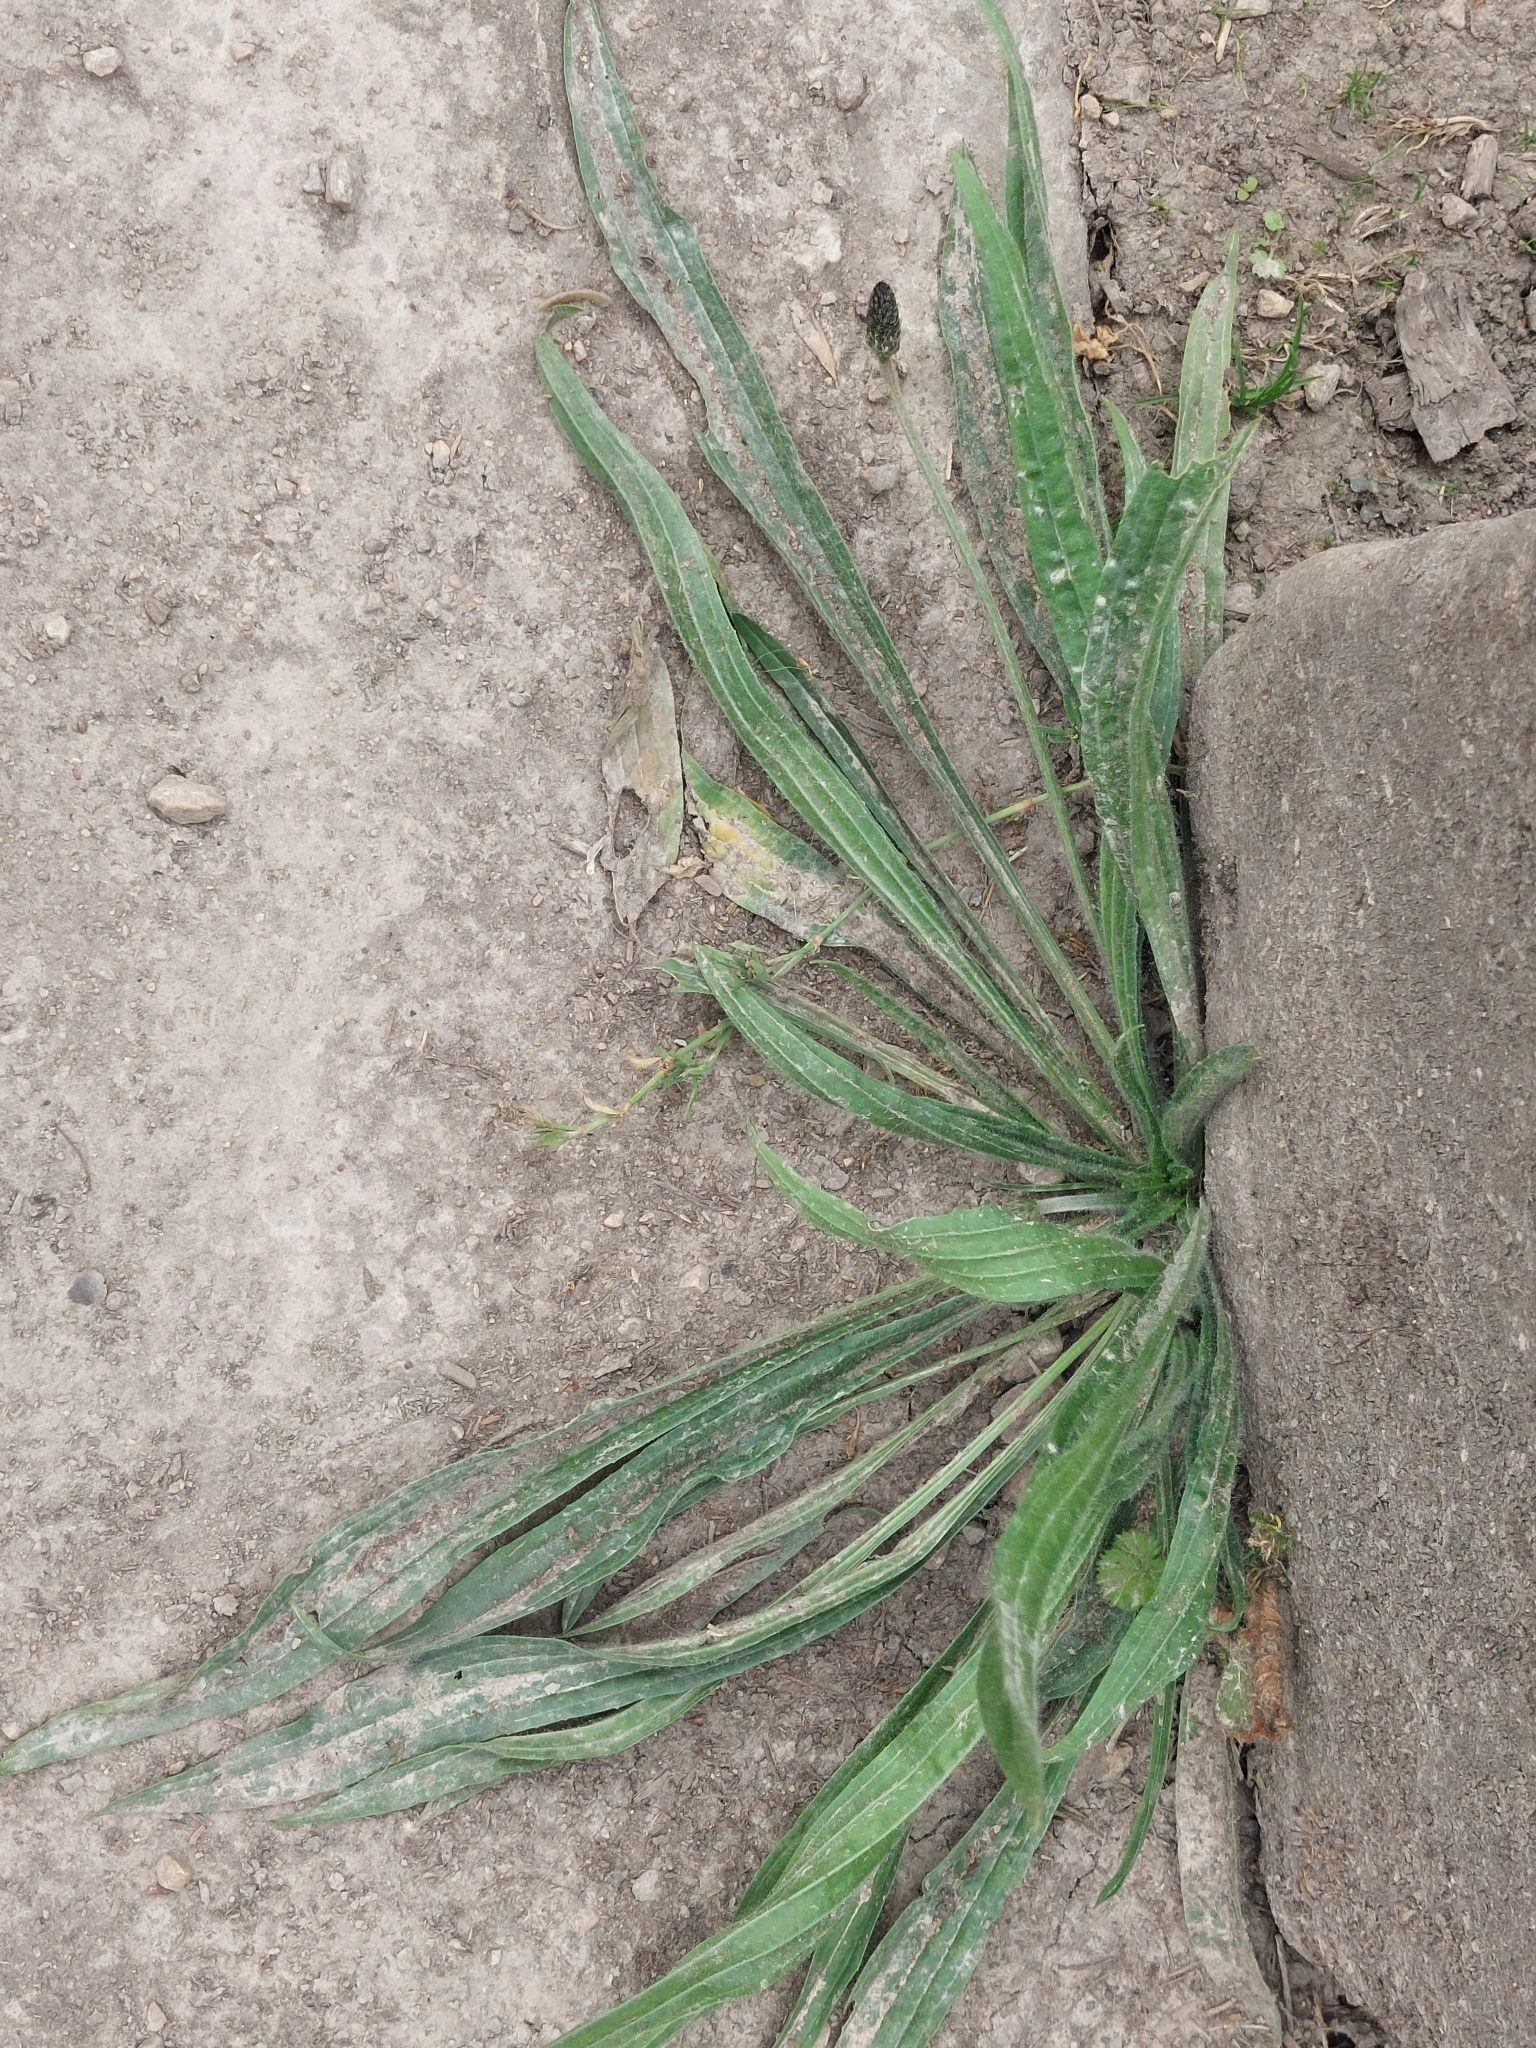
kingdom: Plantae
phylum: Tracheophyta
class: Magnoliopsida
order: Lamiales
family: Plantaginaceae
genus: Plantago
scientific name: Plantago lanceolata
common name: Ribwort plantain
